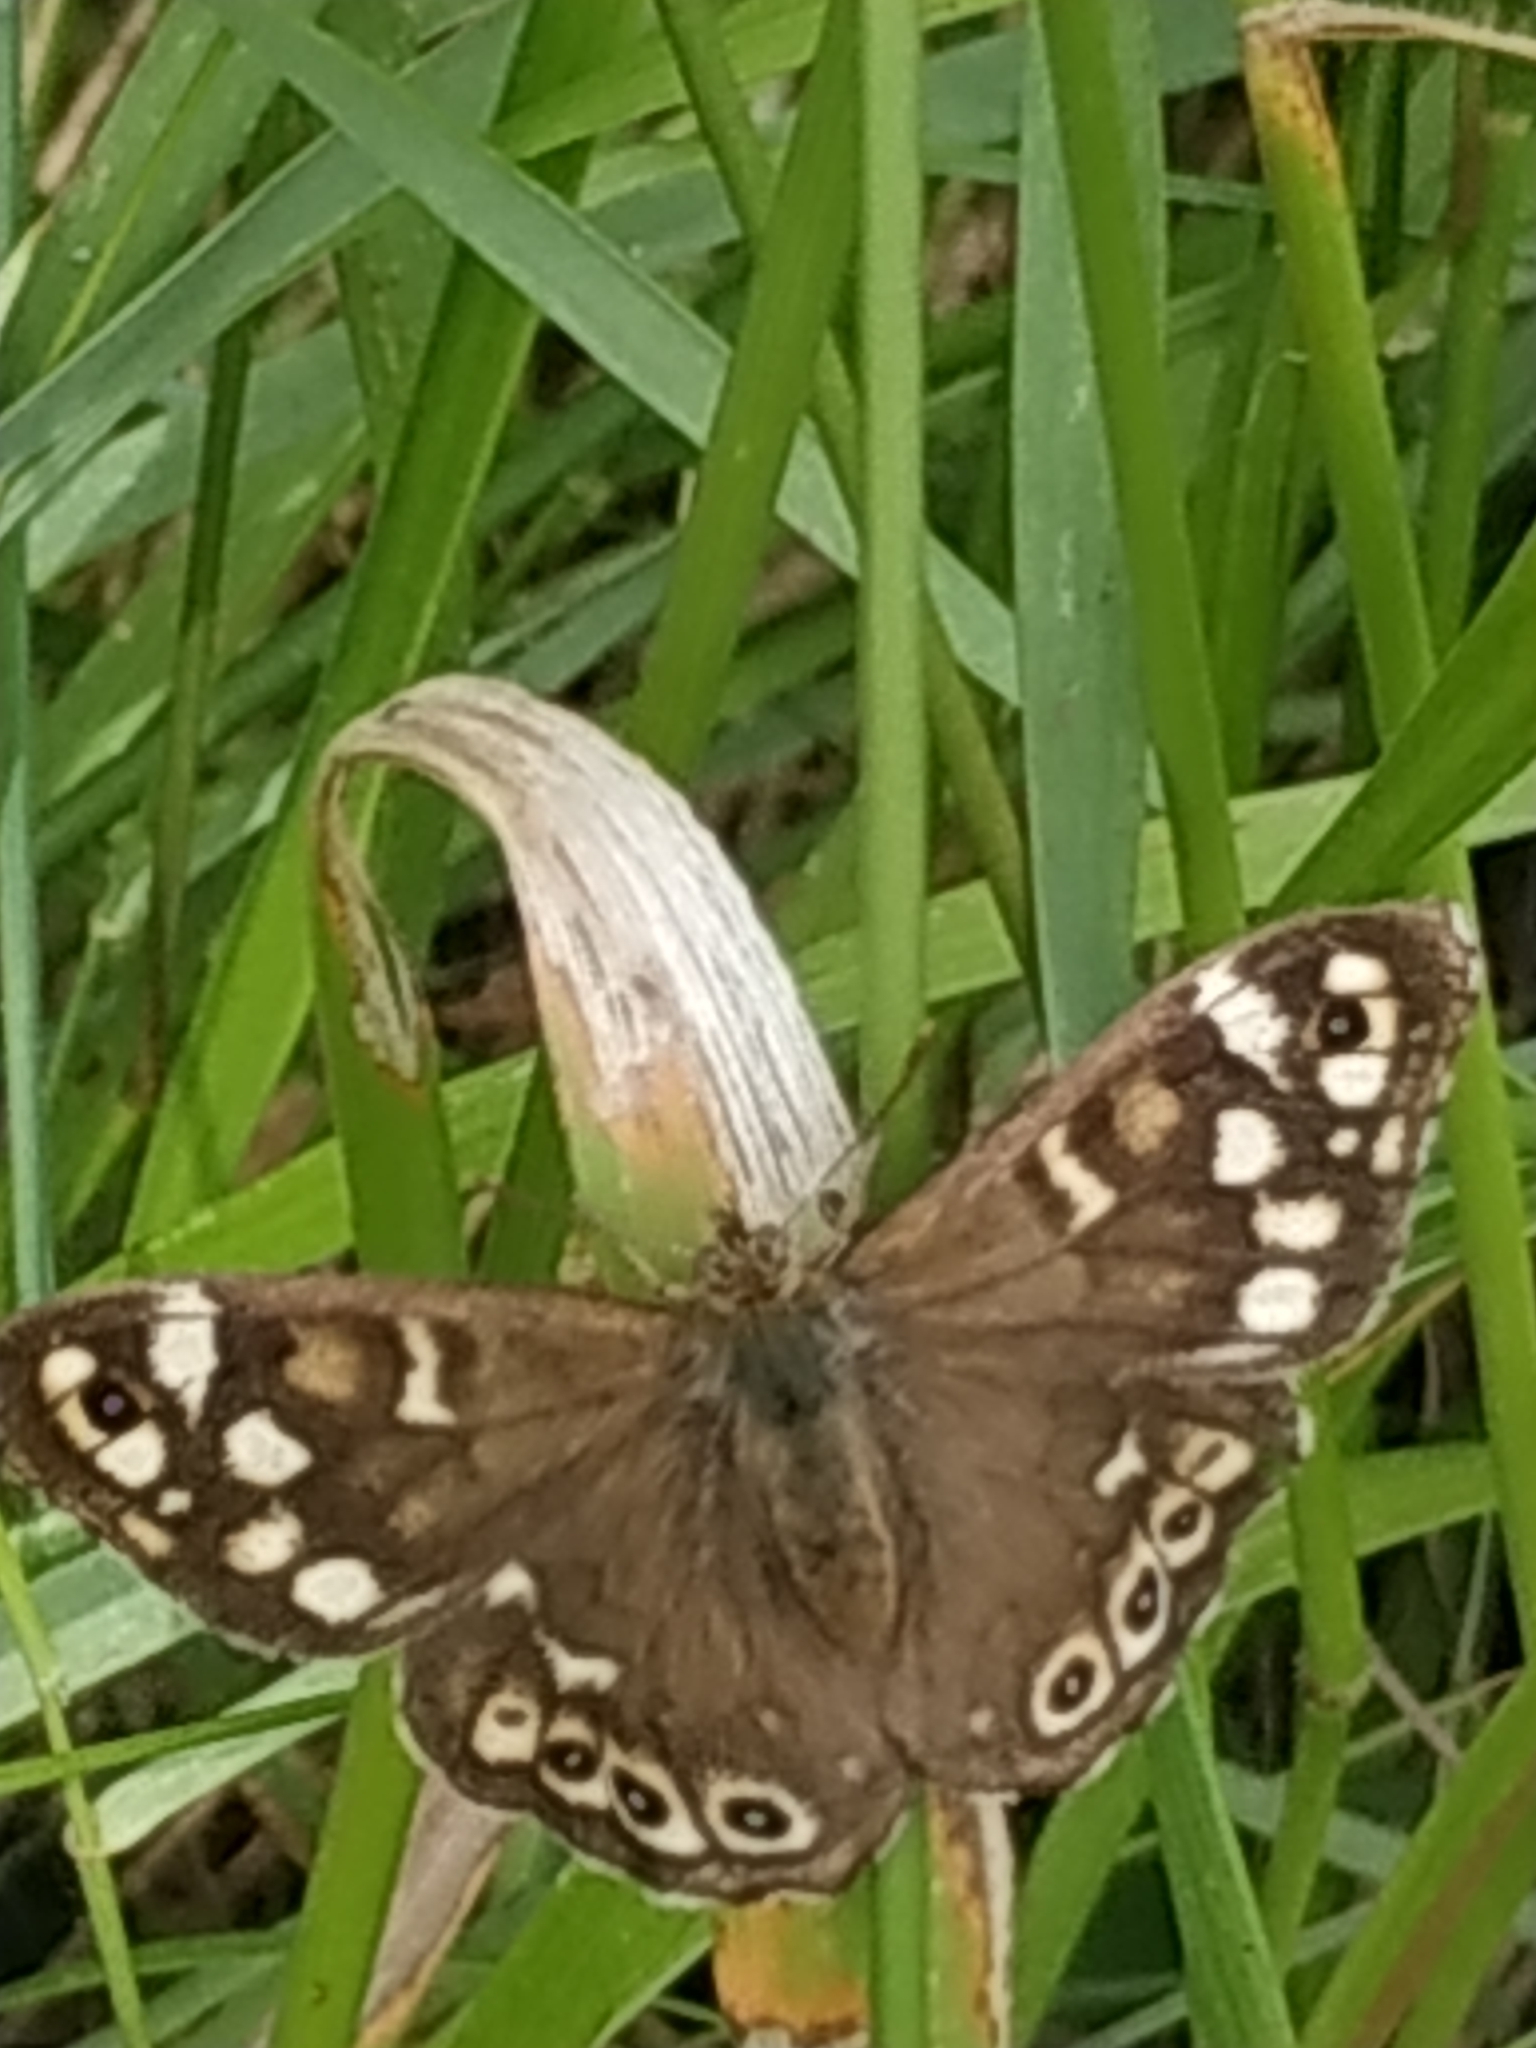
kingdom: Animalia
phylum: Arthropoda
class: Insecta
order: Lepidoptera
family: Nymphalidae
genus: Pararge
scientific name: Pararge aegeria
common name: Speckled wood
